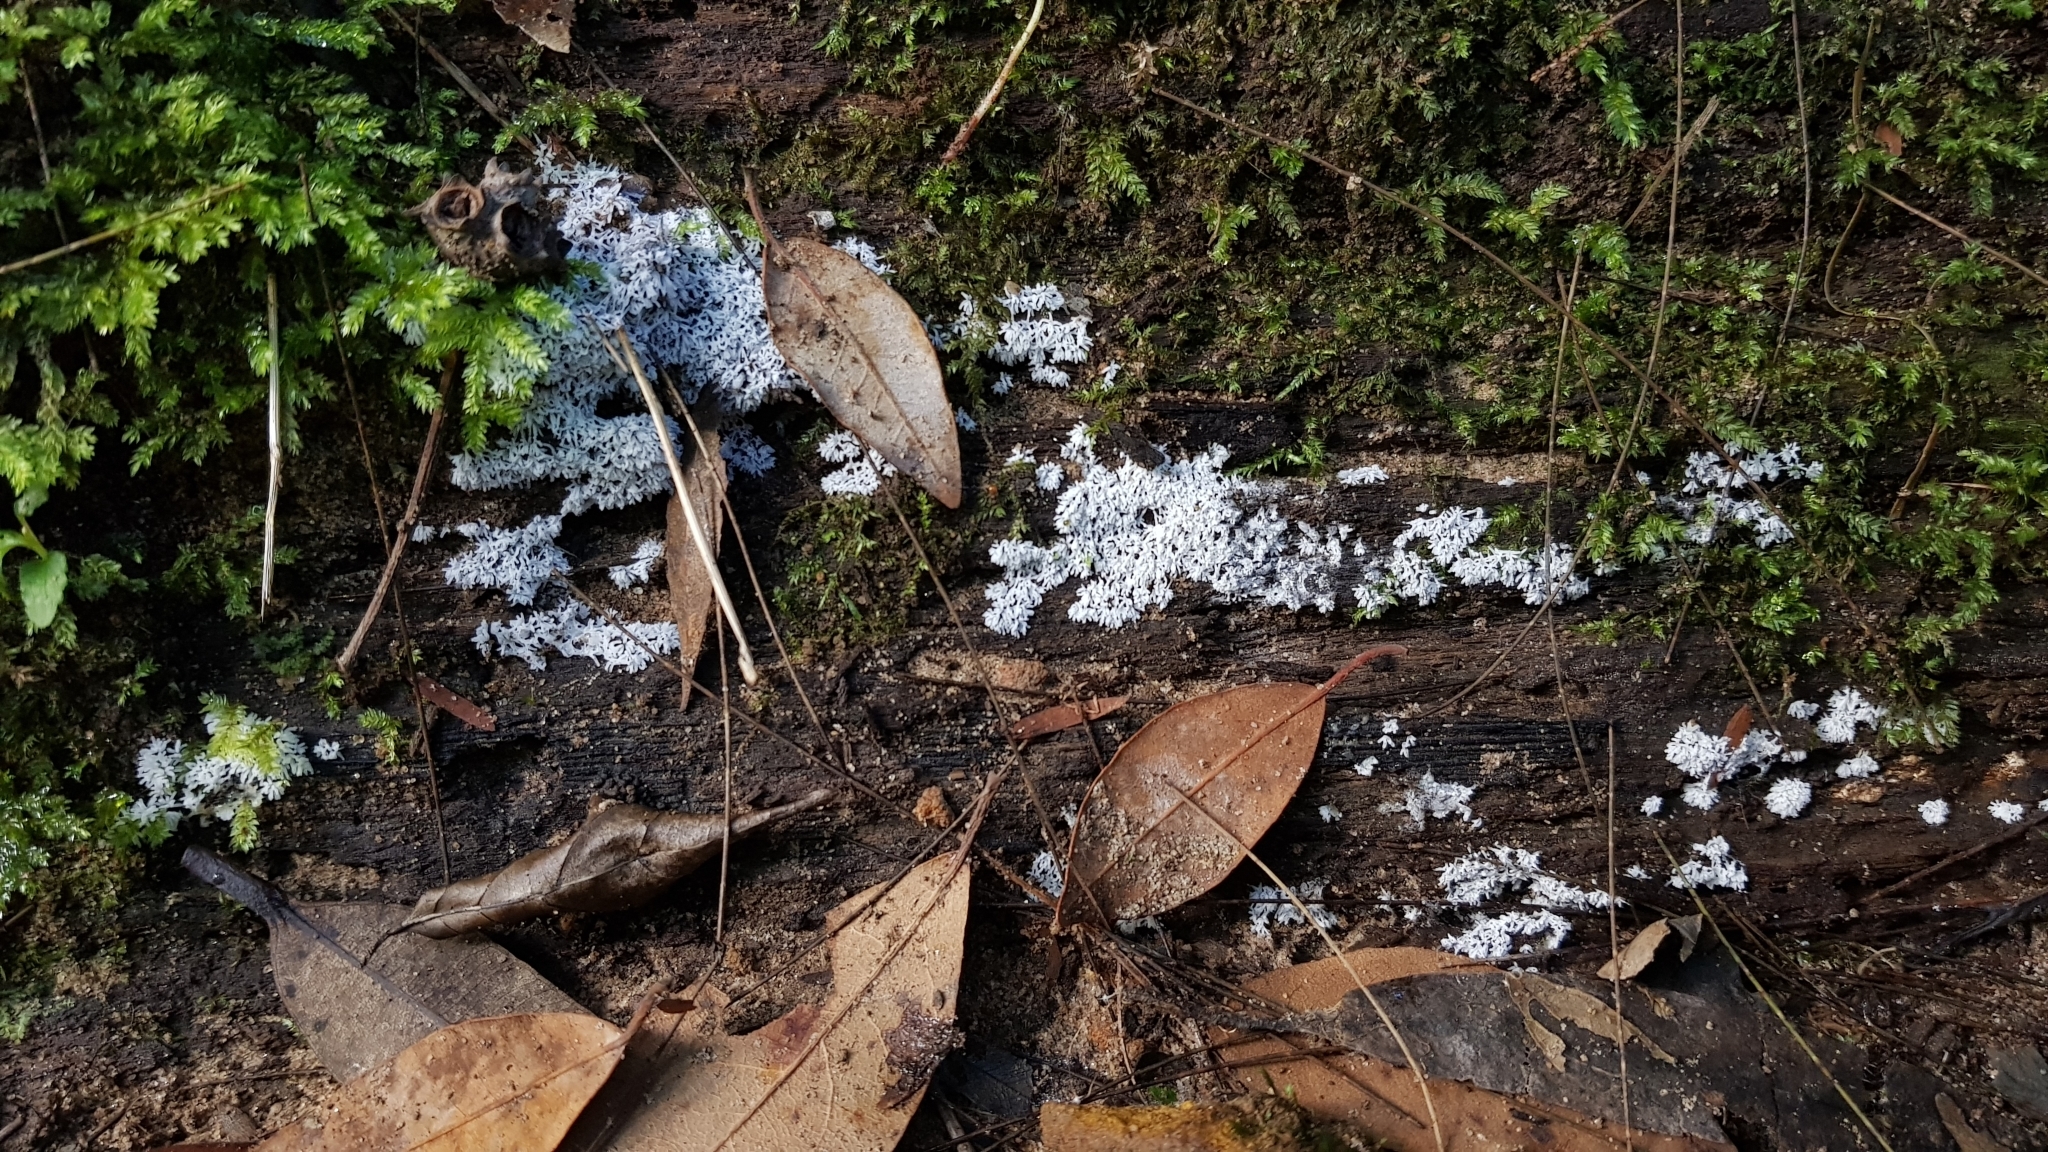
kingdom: Protozoa
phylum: Mycetozoa
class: Protosteliomycetes
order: Ceratiomyxales
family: Ceratiomyxaceae
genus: Ceratiomyxa
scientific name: Ceratiomyxa fruticulosa
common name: Honeycomb coral slime mold
